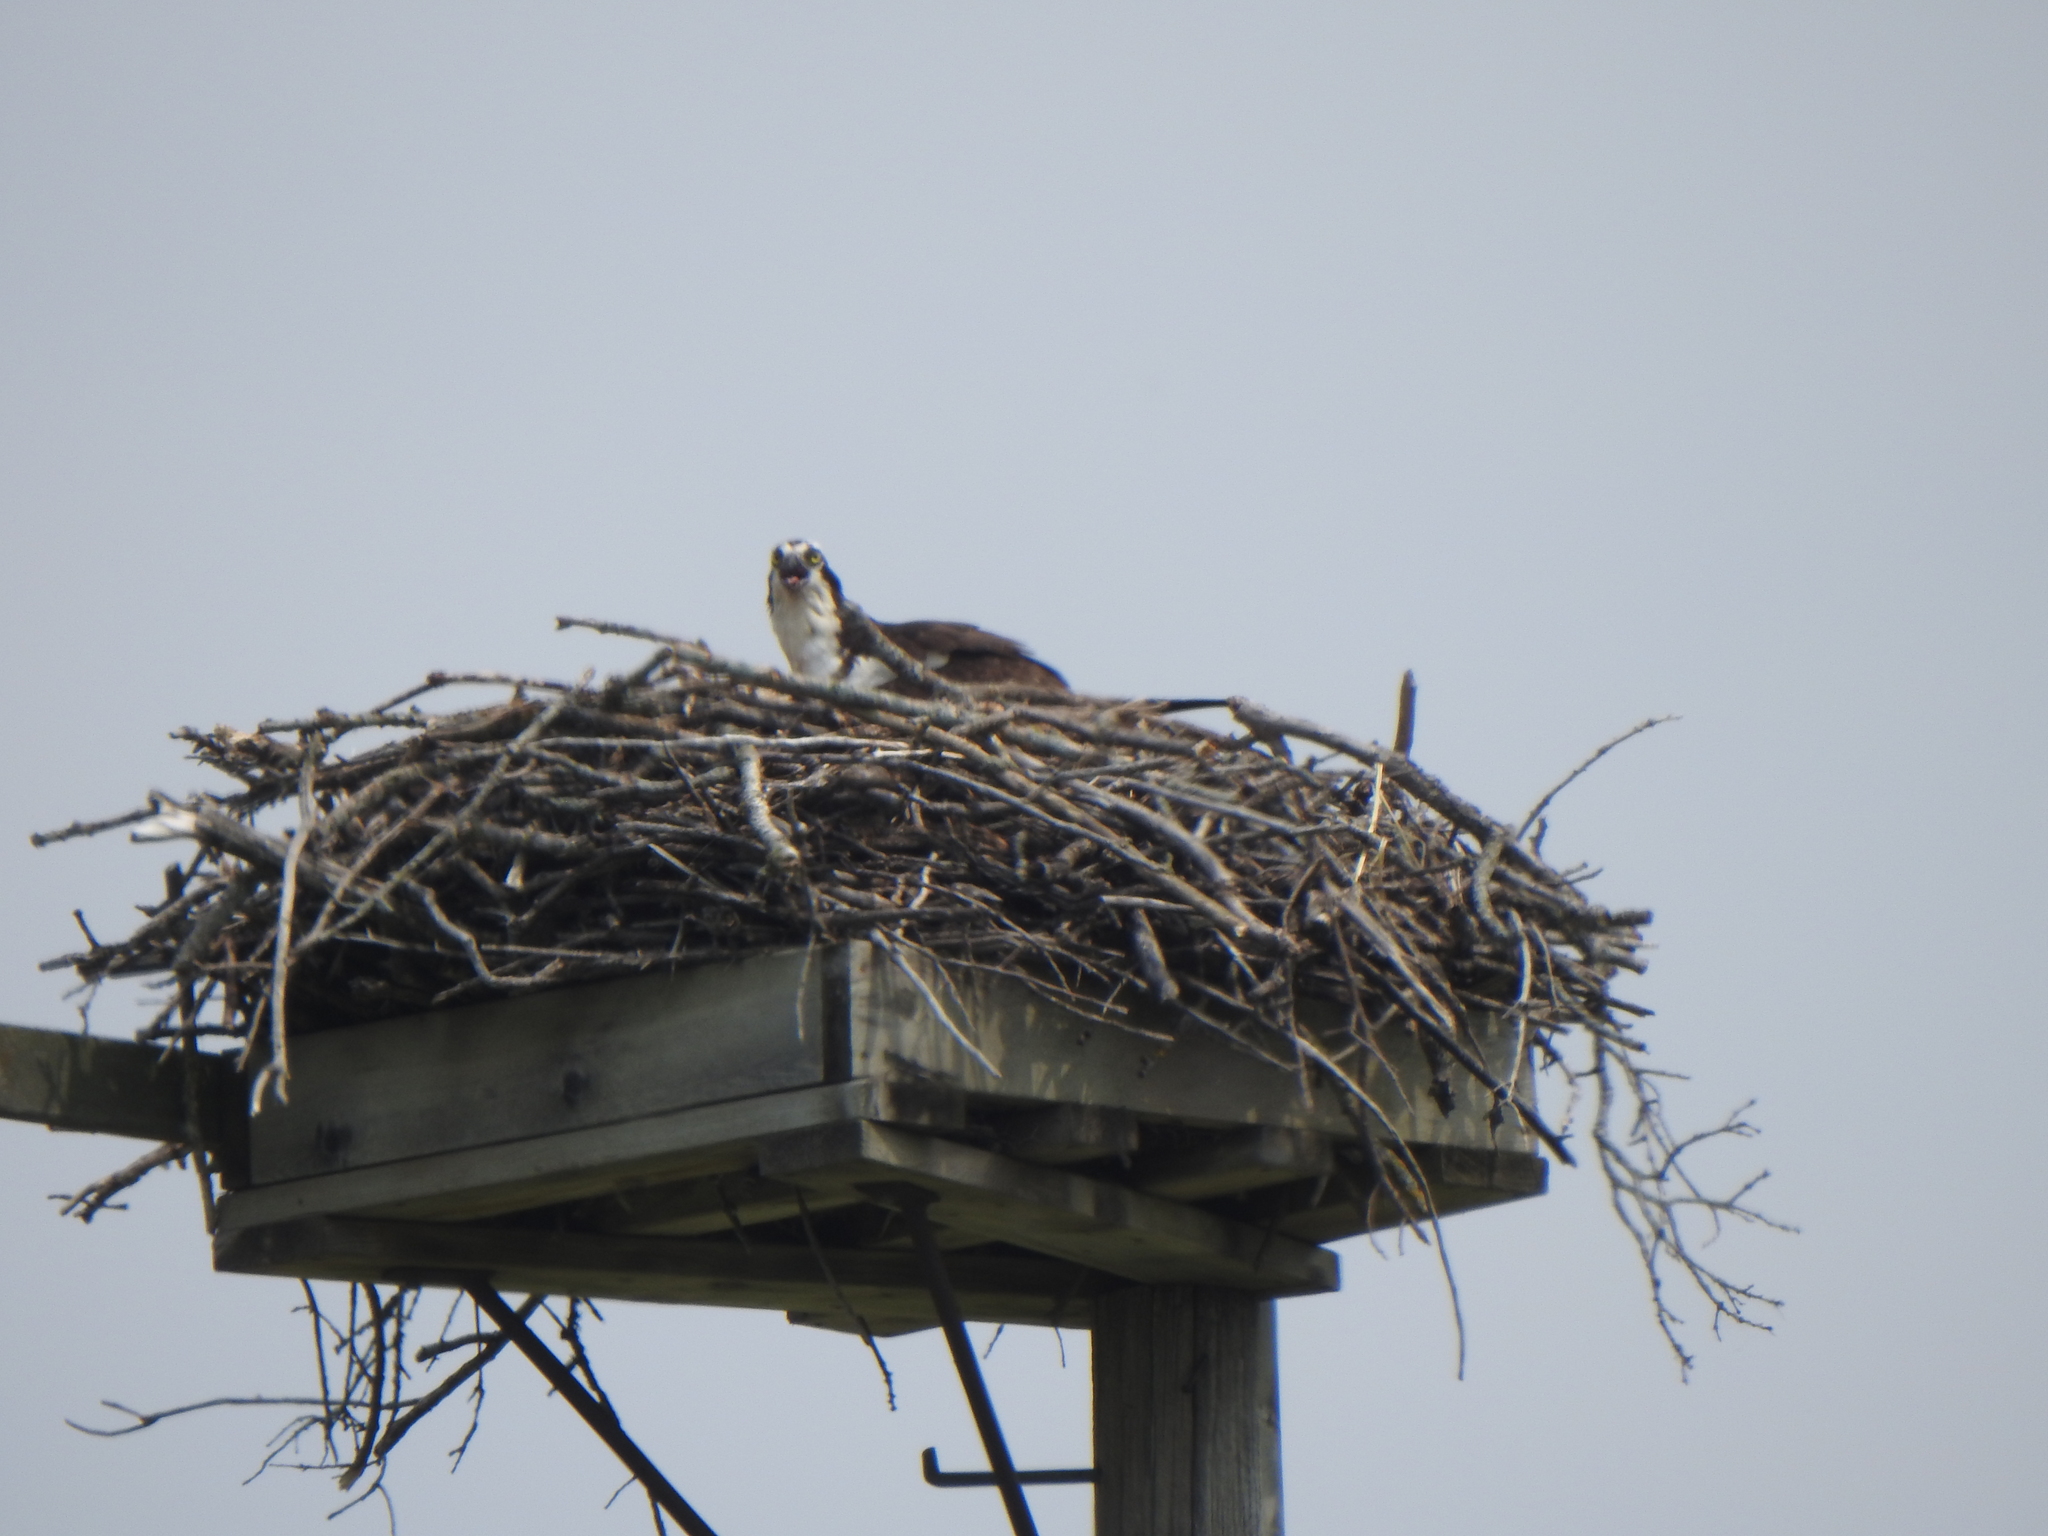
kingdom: Animalia
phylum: Chordata
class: Aves
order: Accipitriformes
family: Pandionidae
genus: Pandion
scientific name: Pandion haliaetus
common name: Osprey
